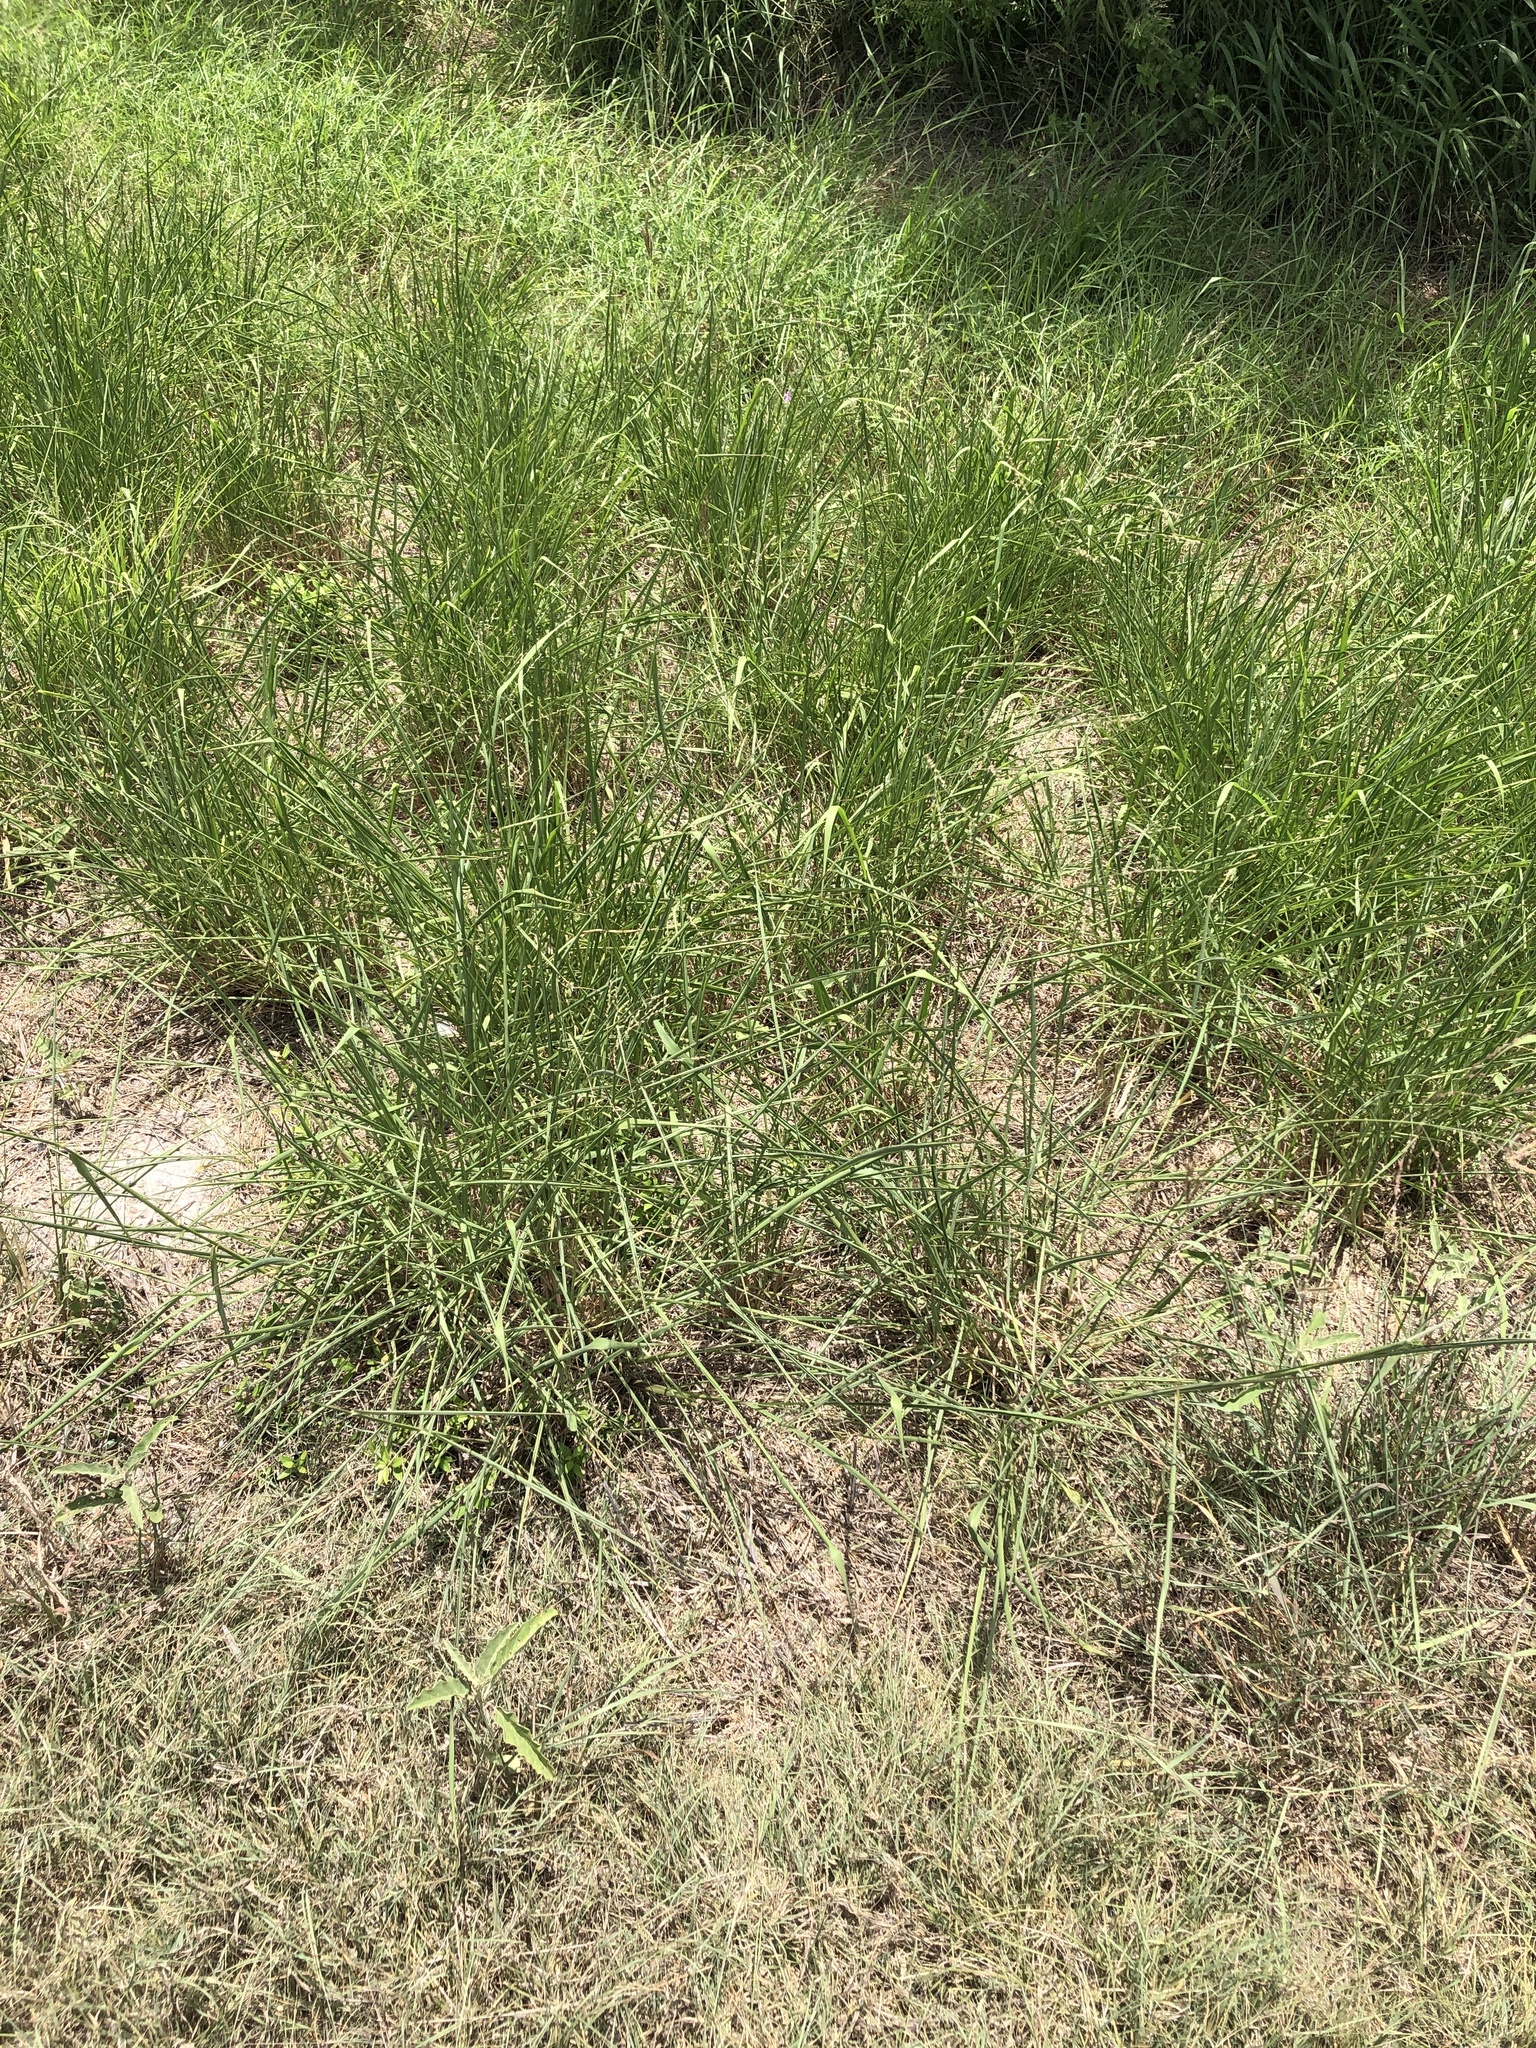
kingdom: Plantae
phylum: Tracheophyta
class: Liliopsida
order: Poales
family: Poaceae
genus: Megathyrsus
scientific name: Megathyrsus maximus
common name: Guineagrass
